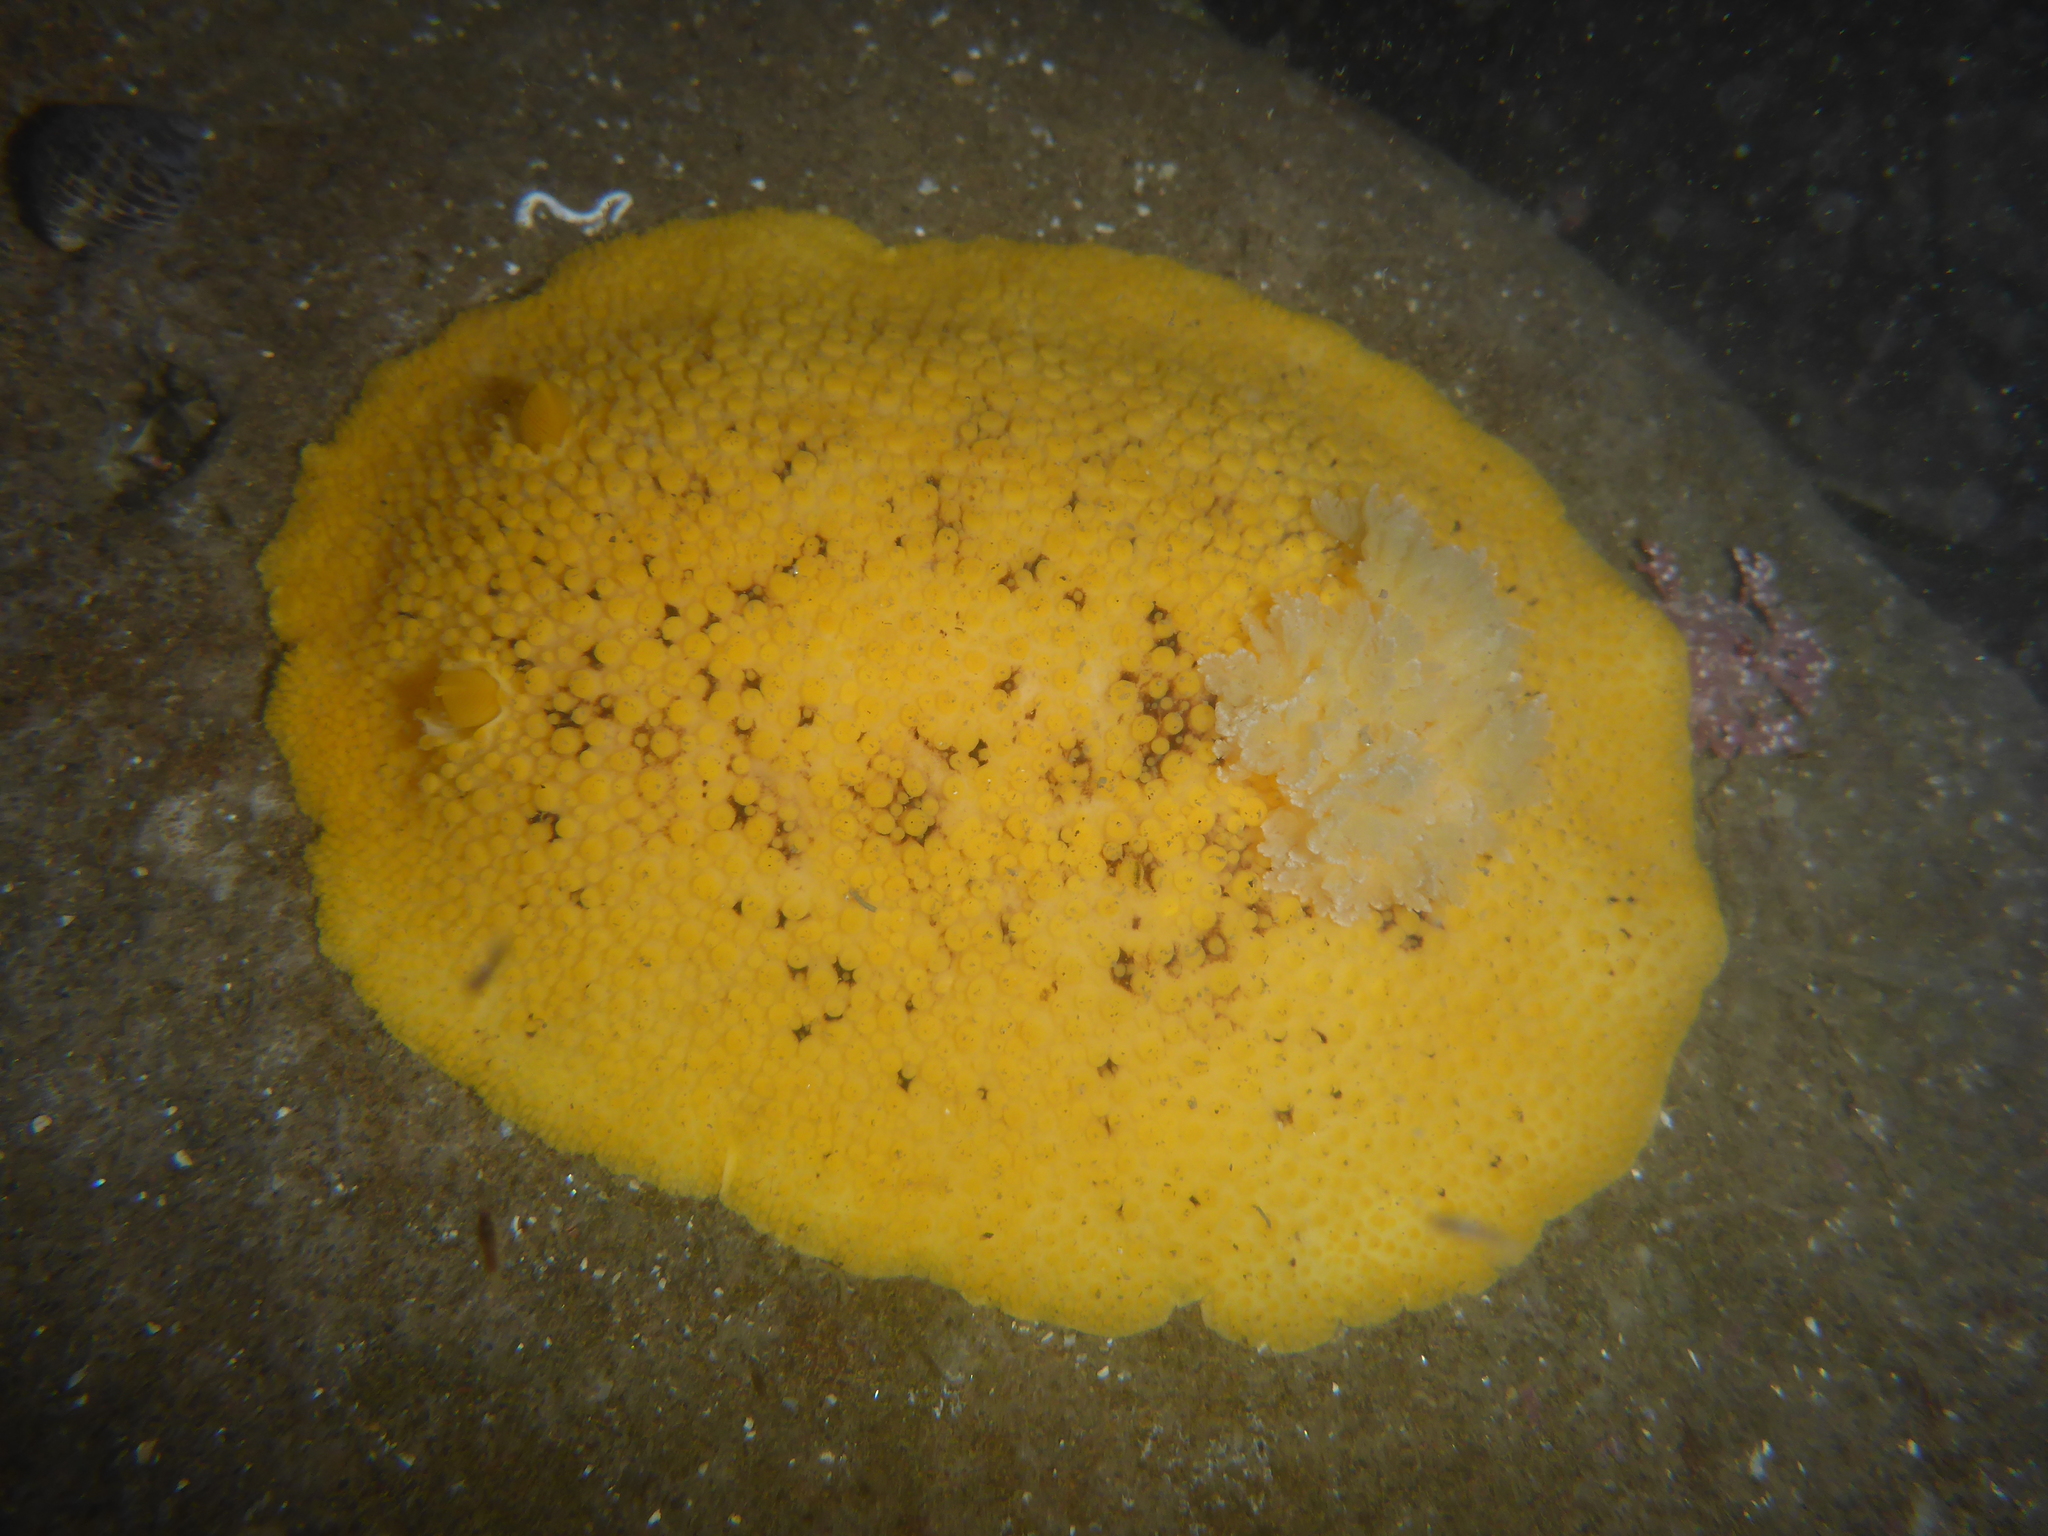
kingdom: Animalia
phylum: Mollusca
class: Gastropoda
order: Nudibranchia
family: Discodorididae
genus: Peltodoris
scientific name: Peltodoris nobilis
